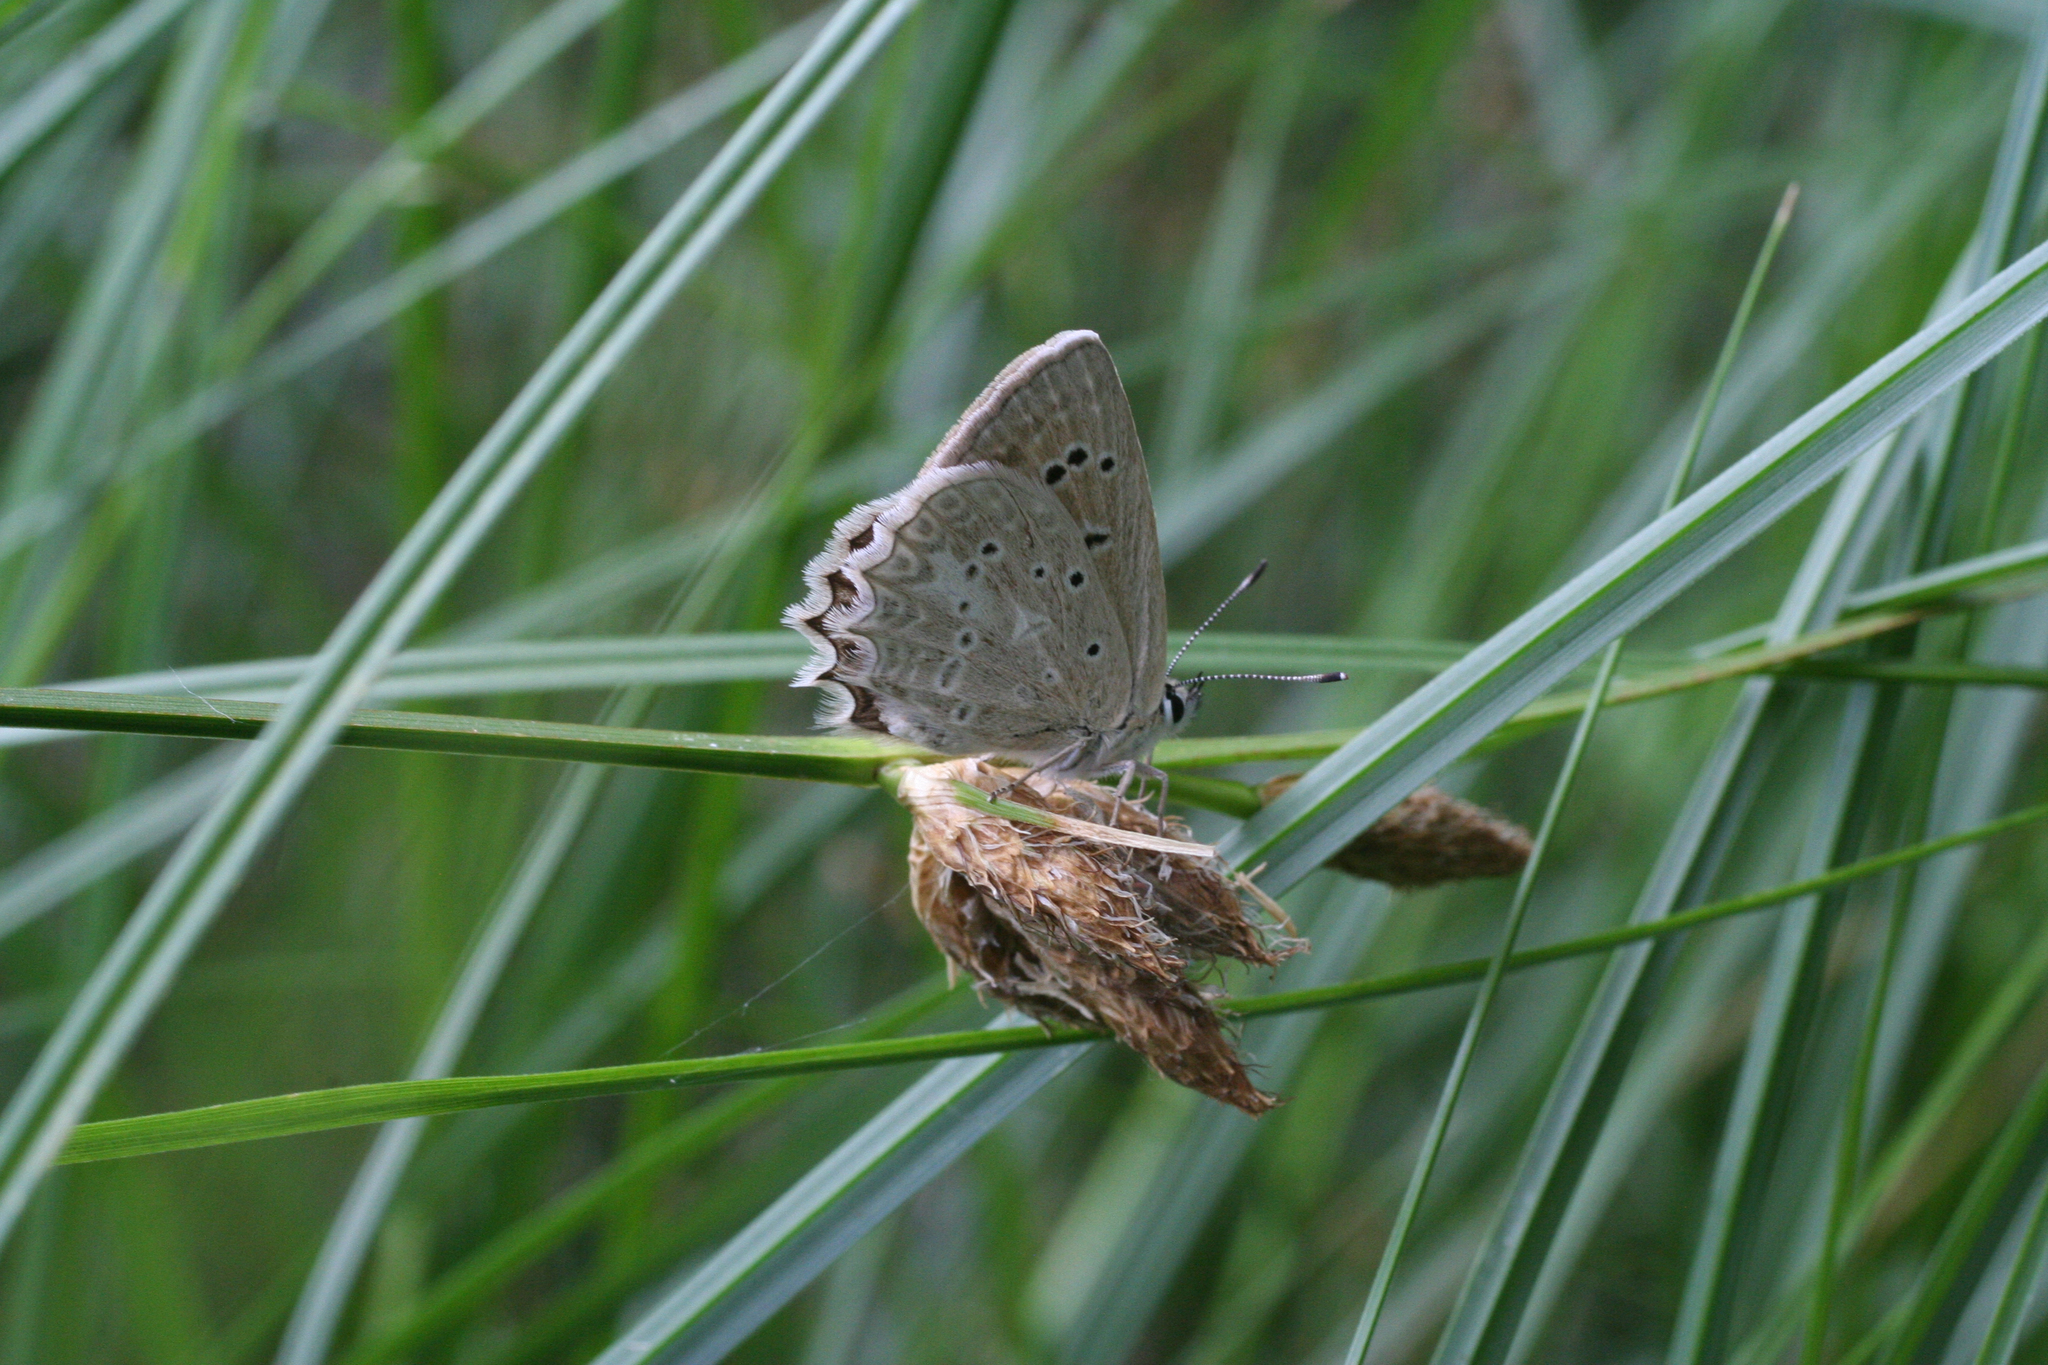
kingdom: Animalia
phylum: Arthropoda
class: Insecta
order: Lepidoptera
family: Lycaenidae
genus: Polyommatus
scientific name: Polyommatus daphnis
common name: Meleager's blue
